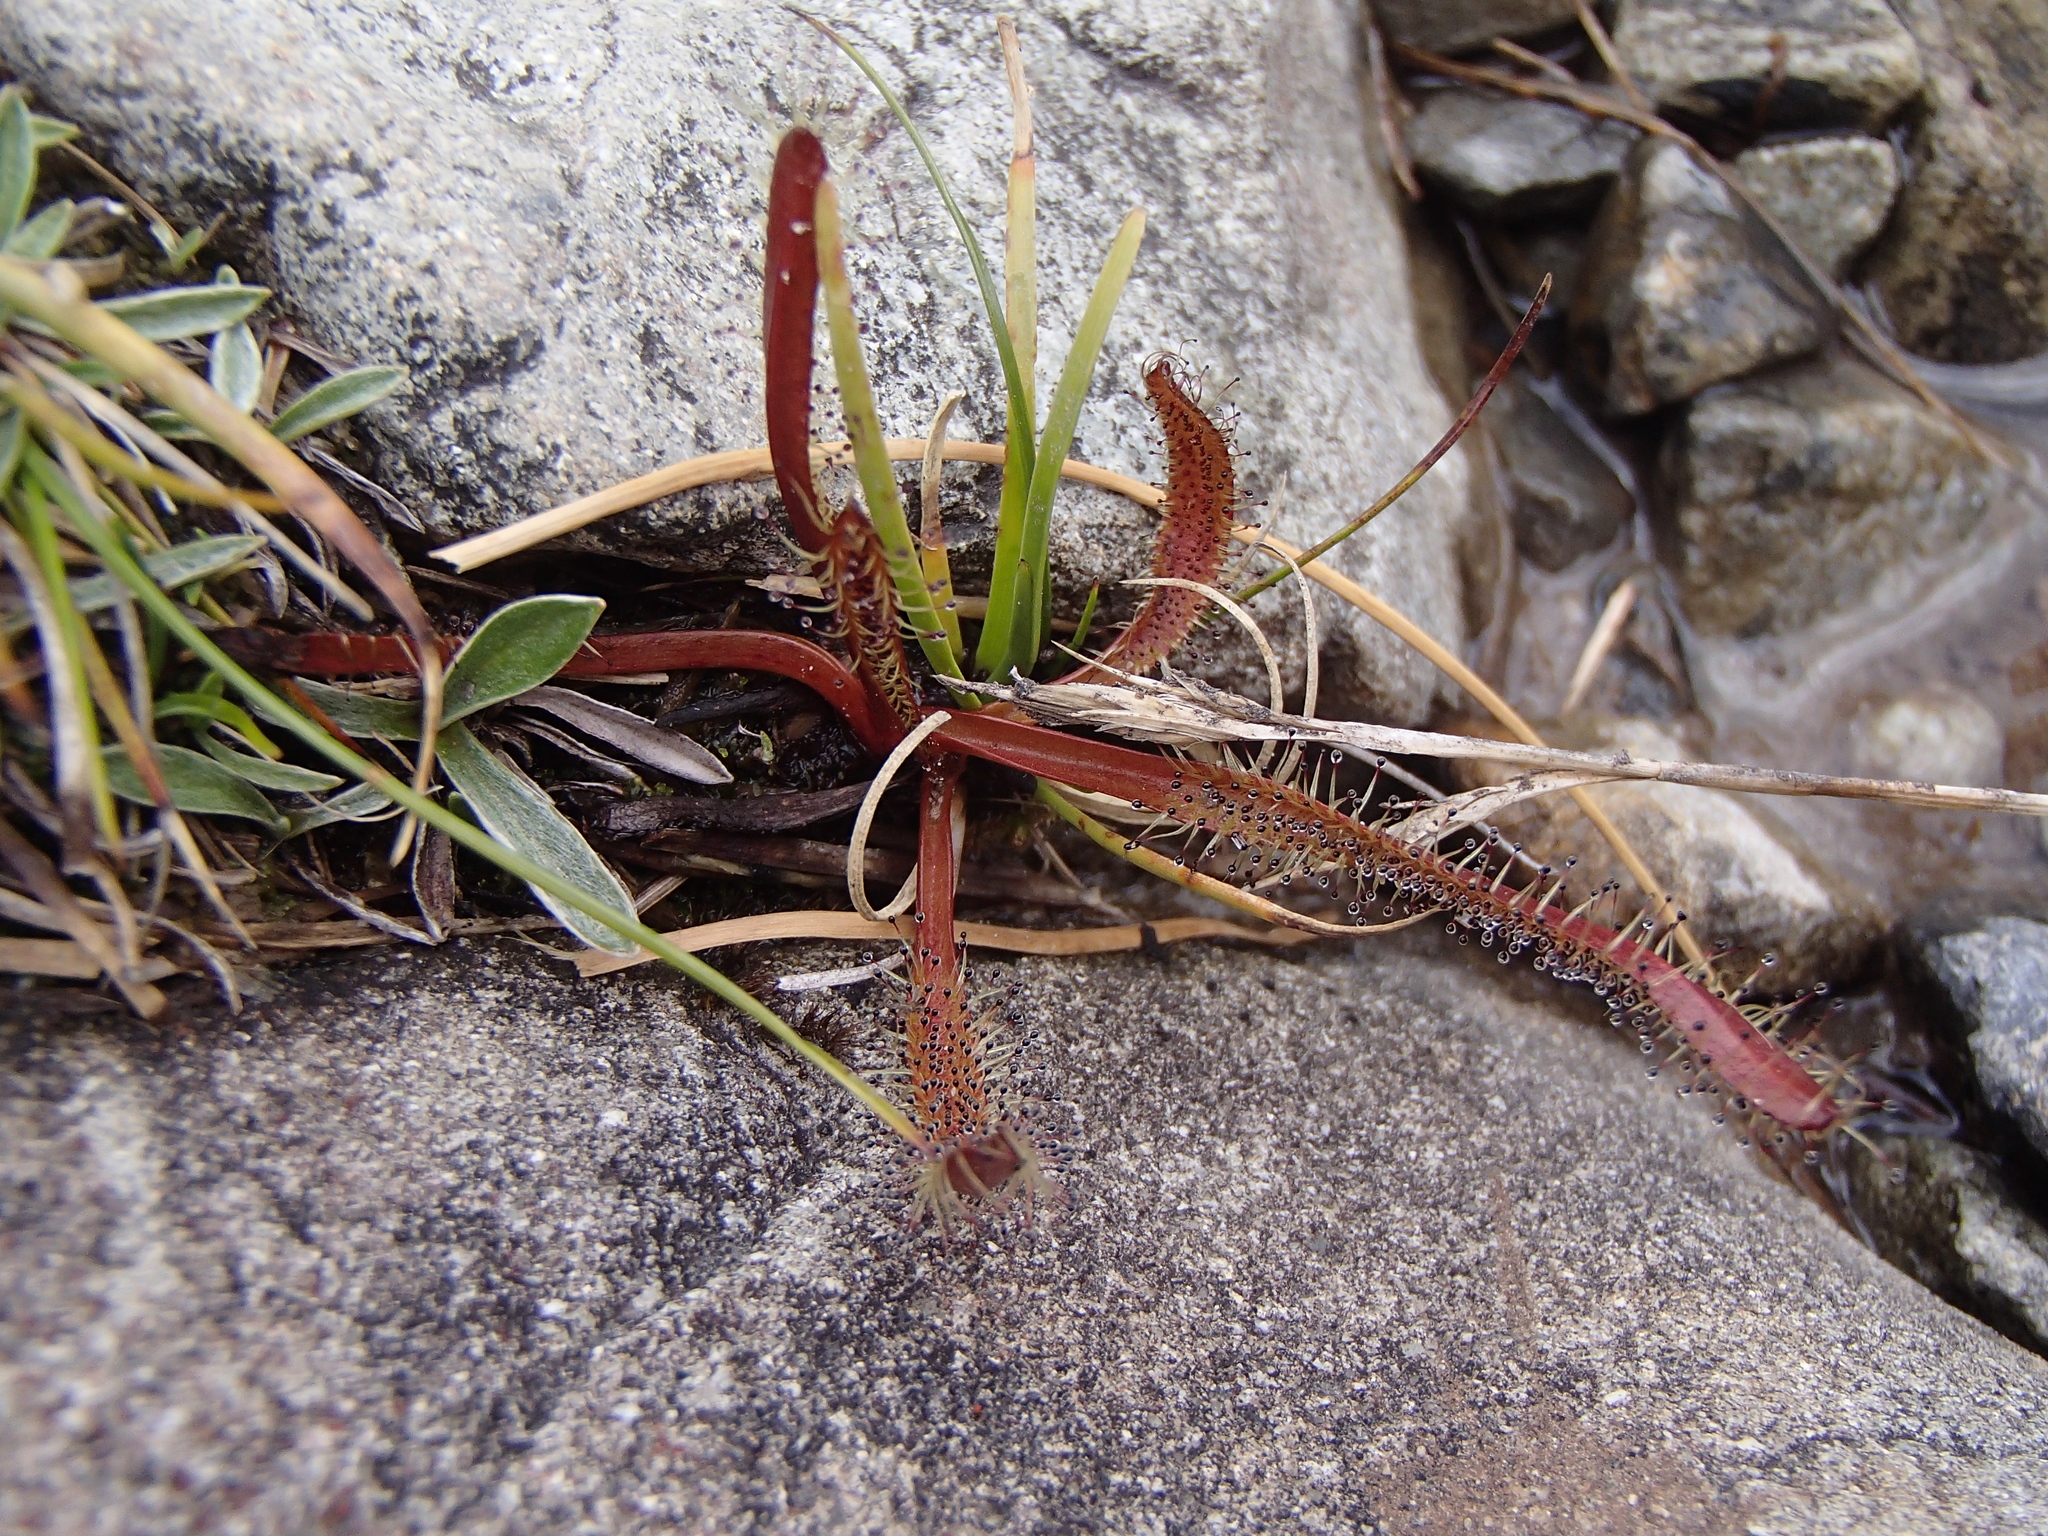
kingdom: Plantae
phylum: Tracheophyta
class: Magnoliopsida
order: Caryophyllales
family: Droseraceae
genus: Drosera
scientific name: Drosera arcturi
